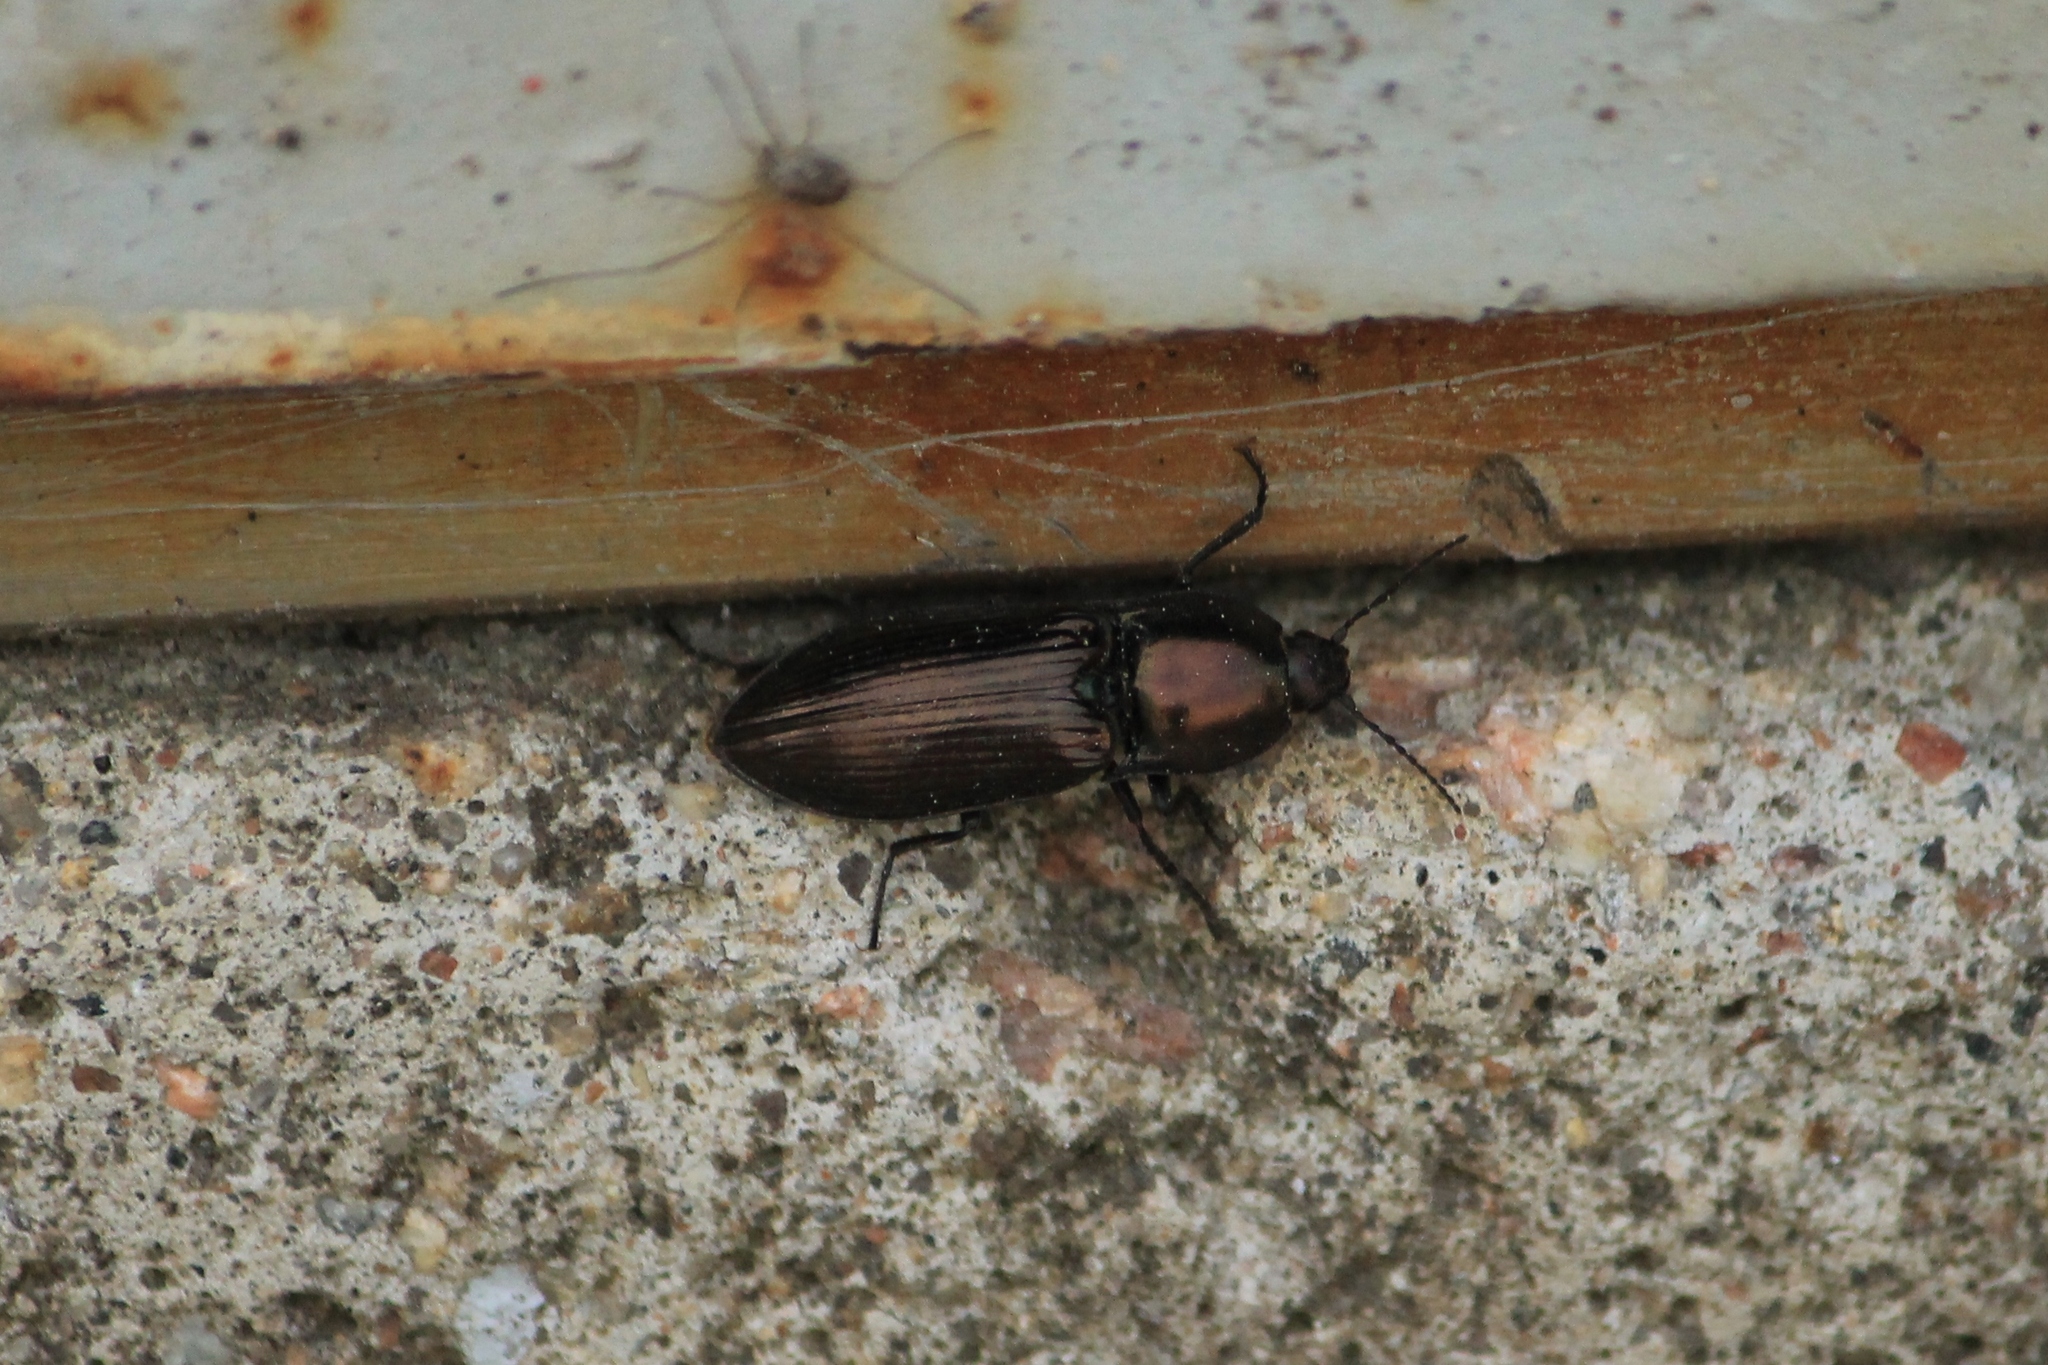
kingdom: Animalia
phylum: Arthropoda
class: Insecta
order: Coleoptera
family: Elateridae
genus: Selatosomus
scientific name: Selatosomus aeneus
